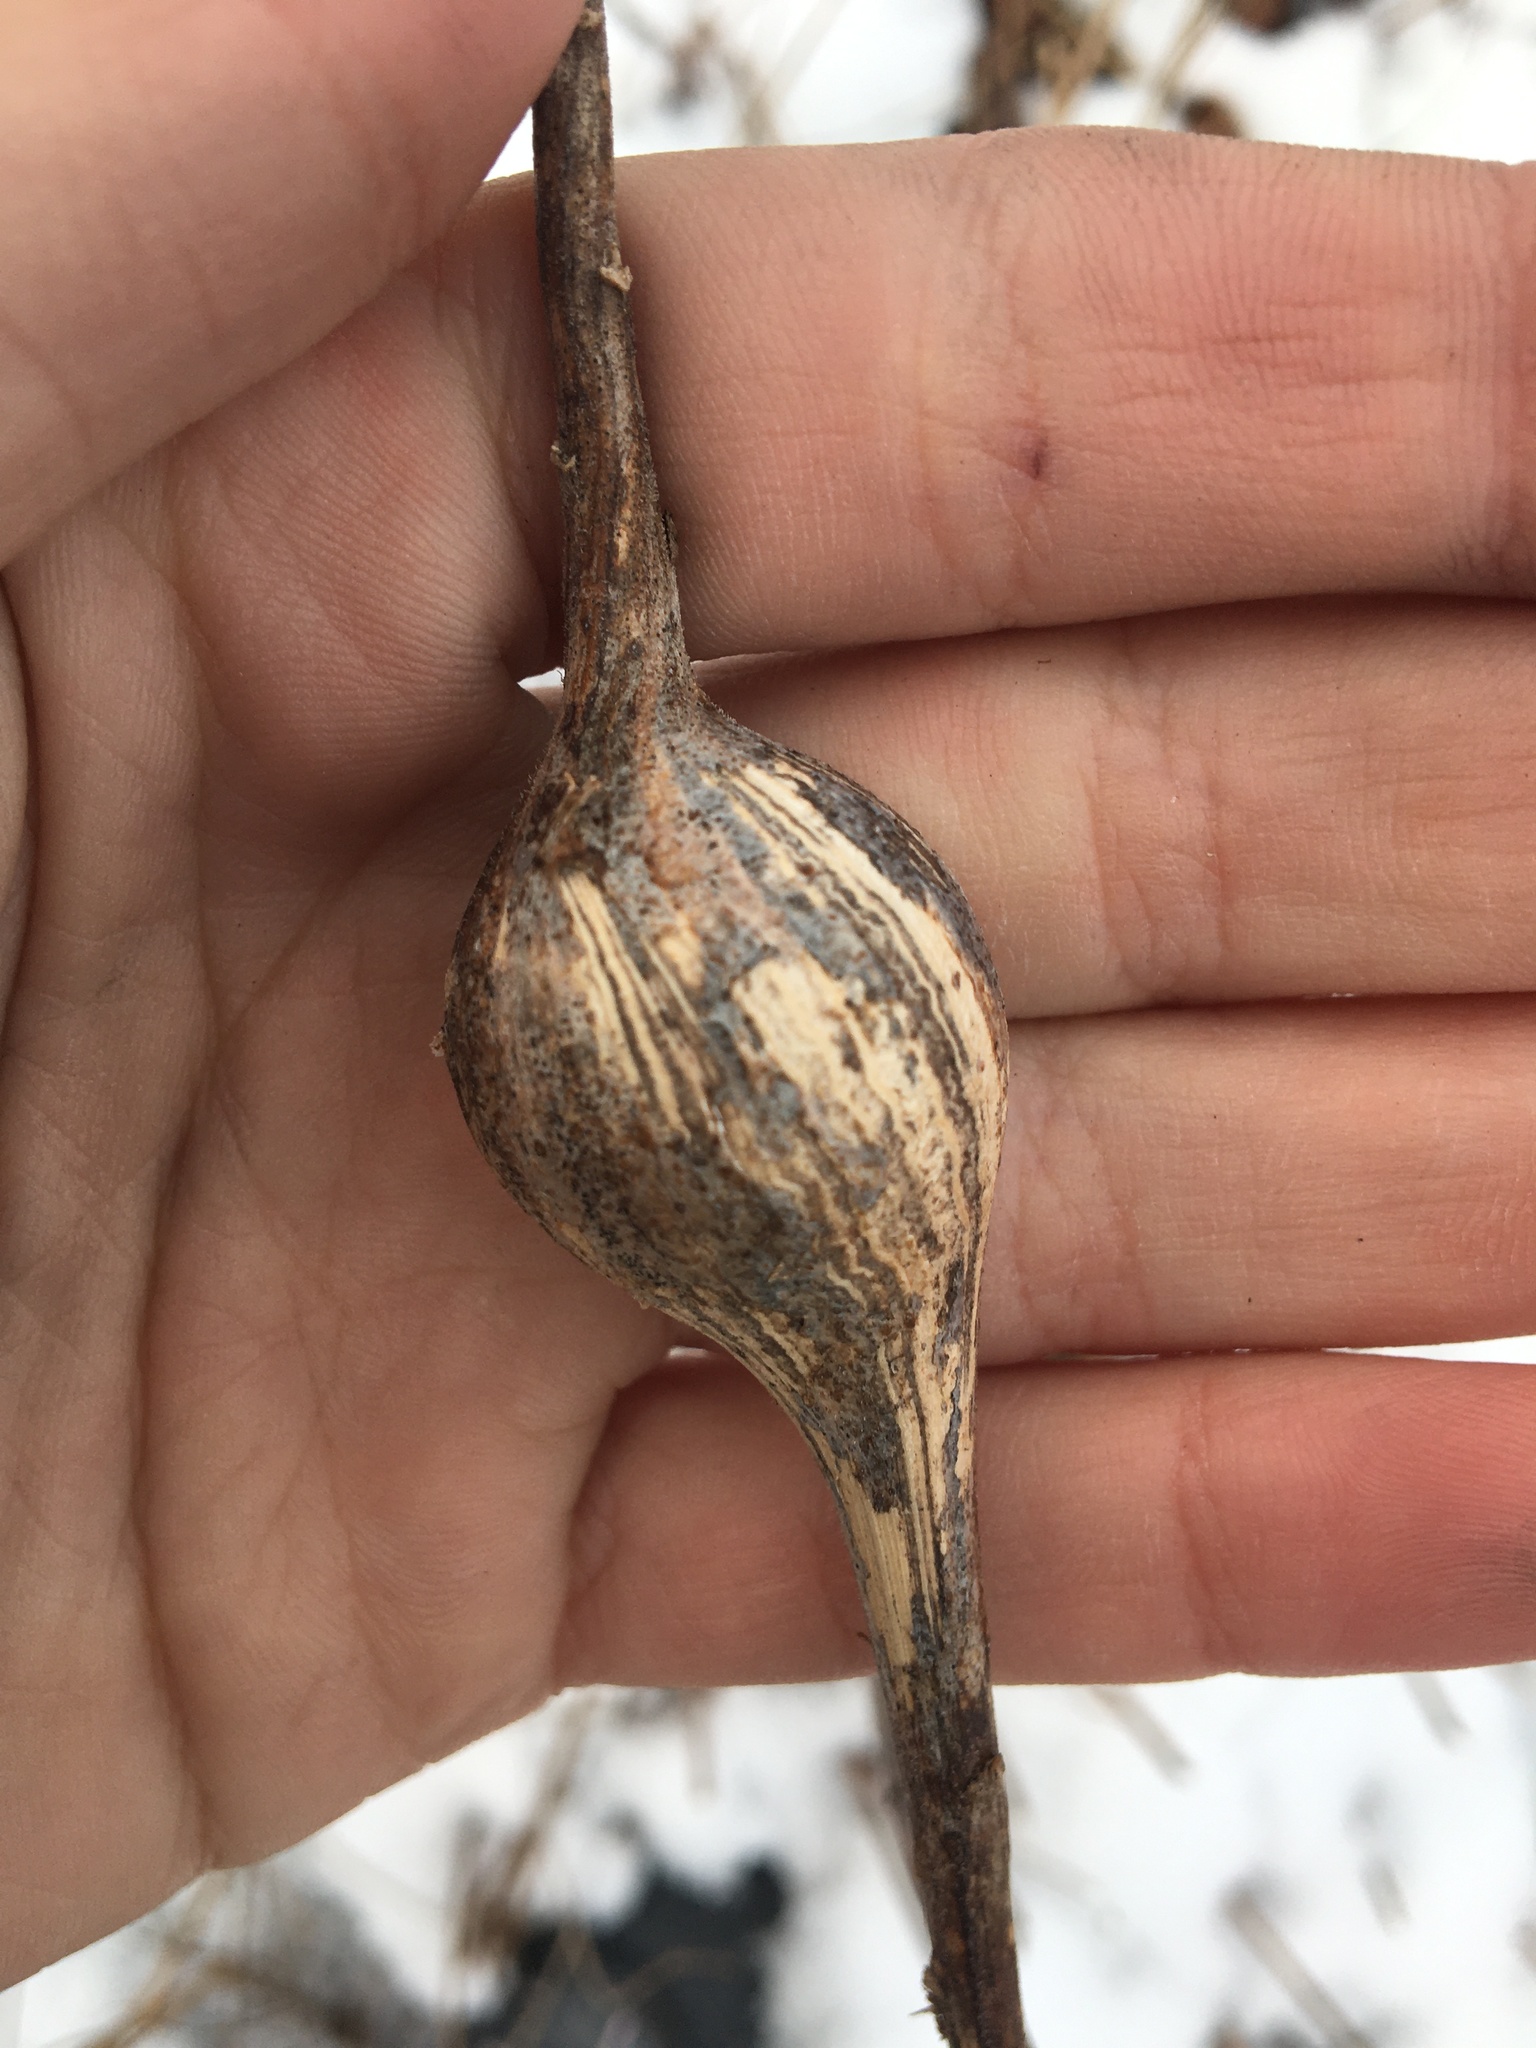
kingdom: Animalia
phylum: Arthropoda
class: Insecta
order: Diptera
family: Tephritidae
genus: Eurosta
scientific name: Eurosta solidaginis
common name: Goldenrod gall fly
